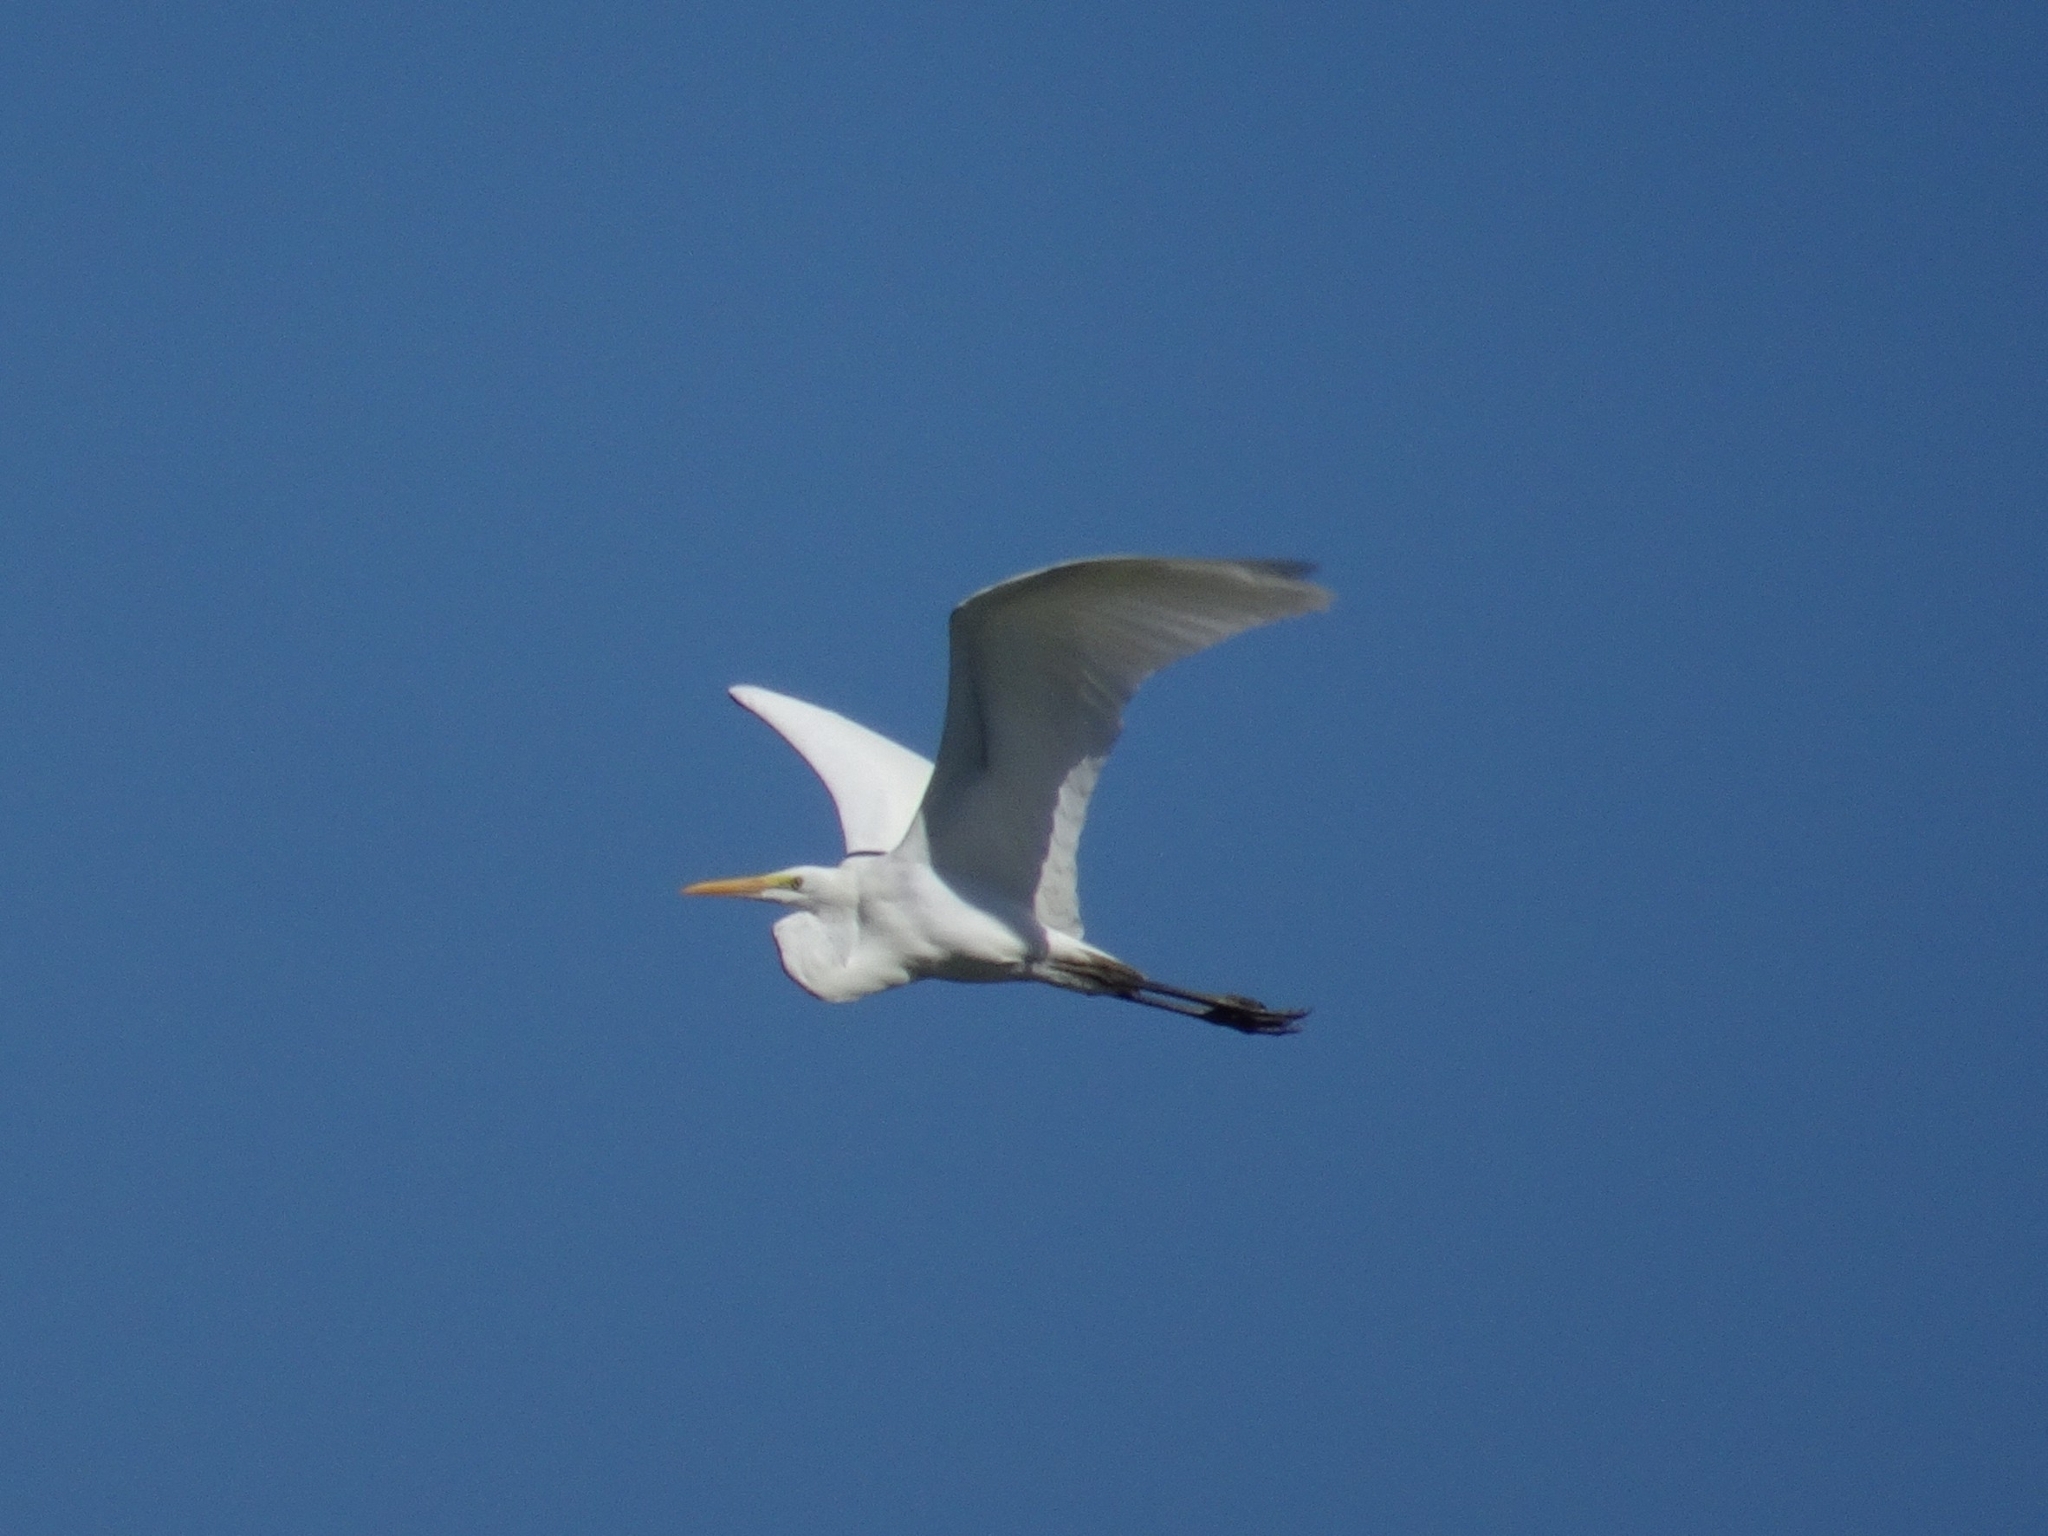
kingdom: Animalia
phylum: Chordata
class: Aves
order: Pelecaniformes
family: Ardeidae
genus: Ardea
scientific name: Ardea alba
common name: Great egret
